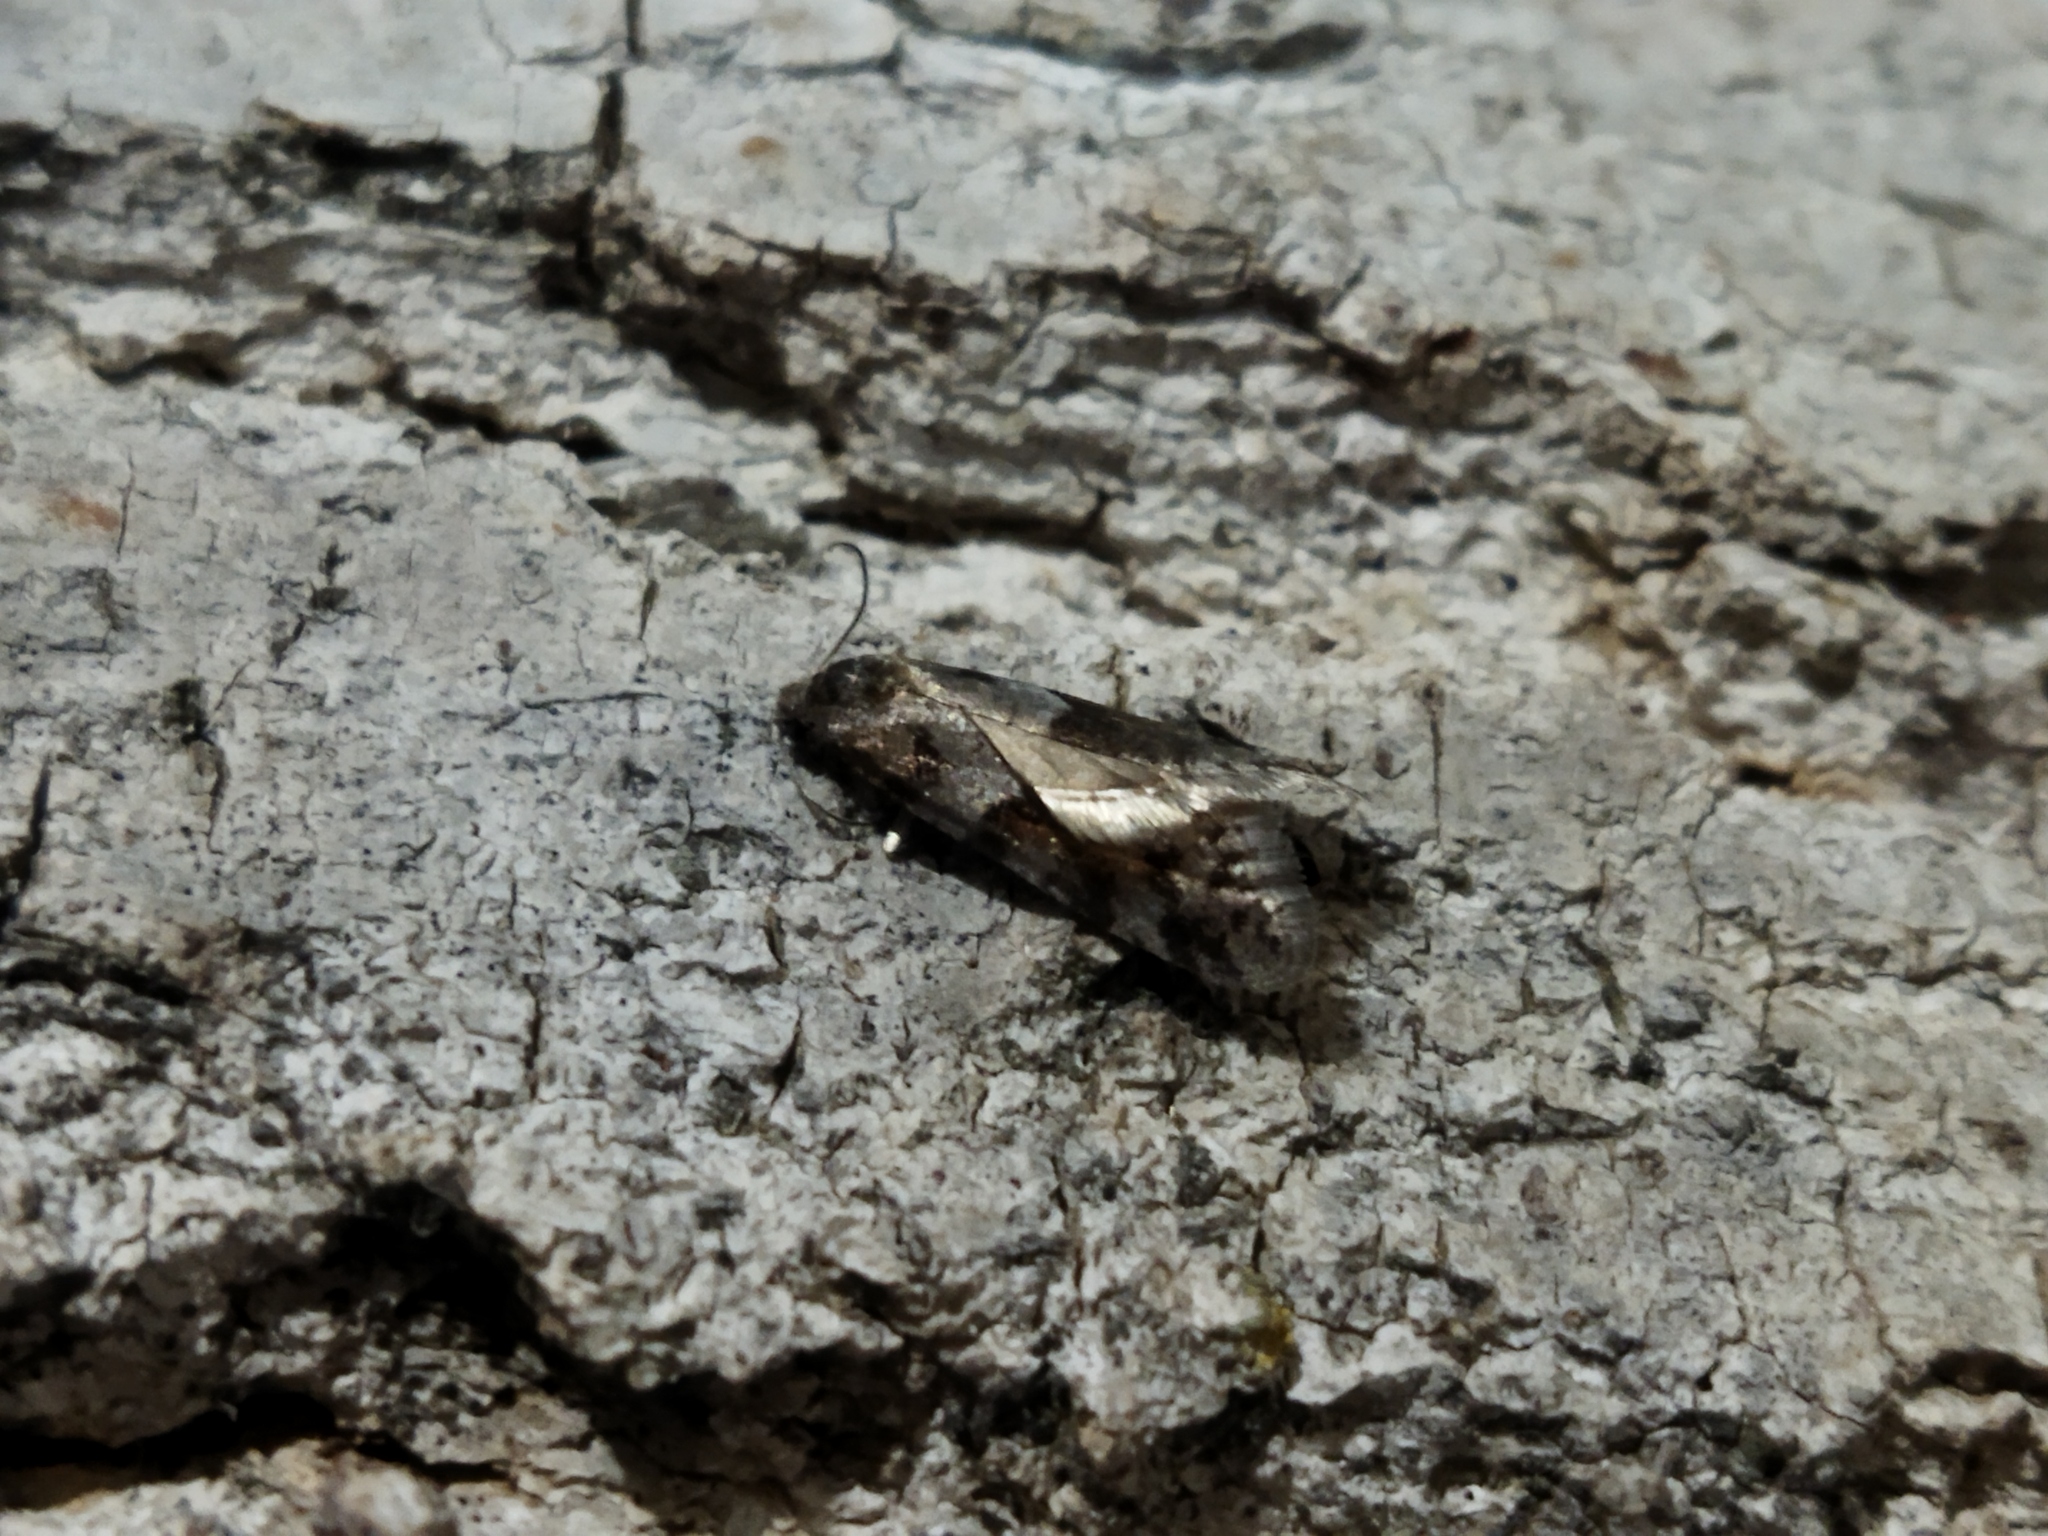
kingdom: Animalia
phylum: Arthropoda
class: Insecta
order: Lepidoptera
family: Tortricidae
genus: Tortricodes
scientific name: Tortricodes alternella
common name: Winter shade
